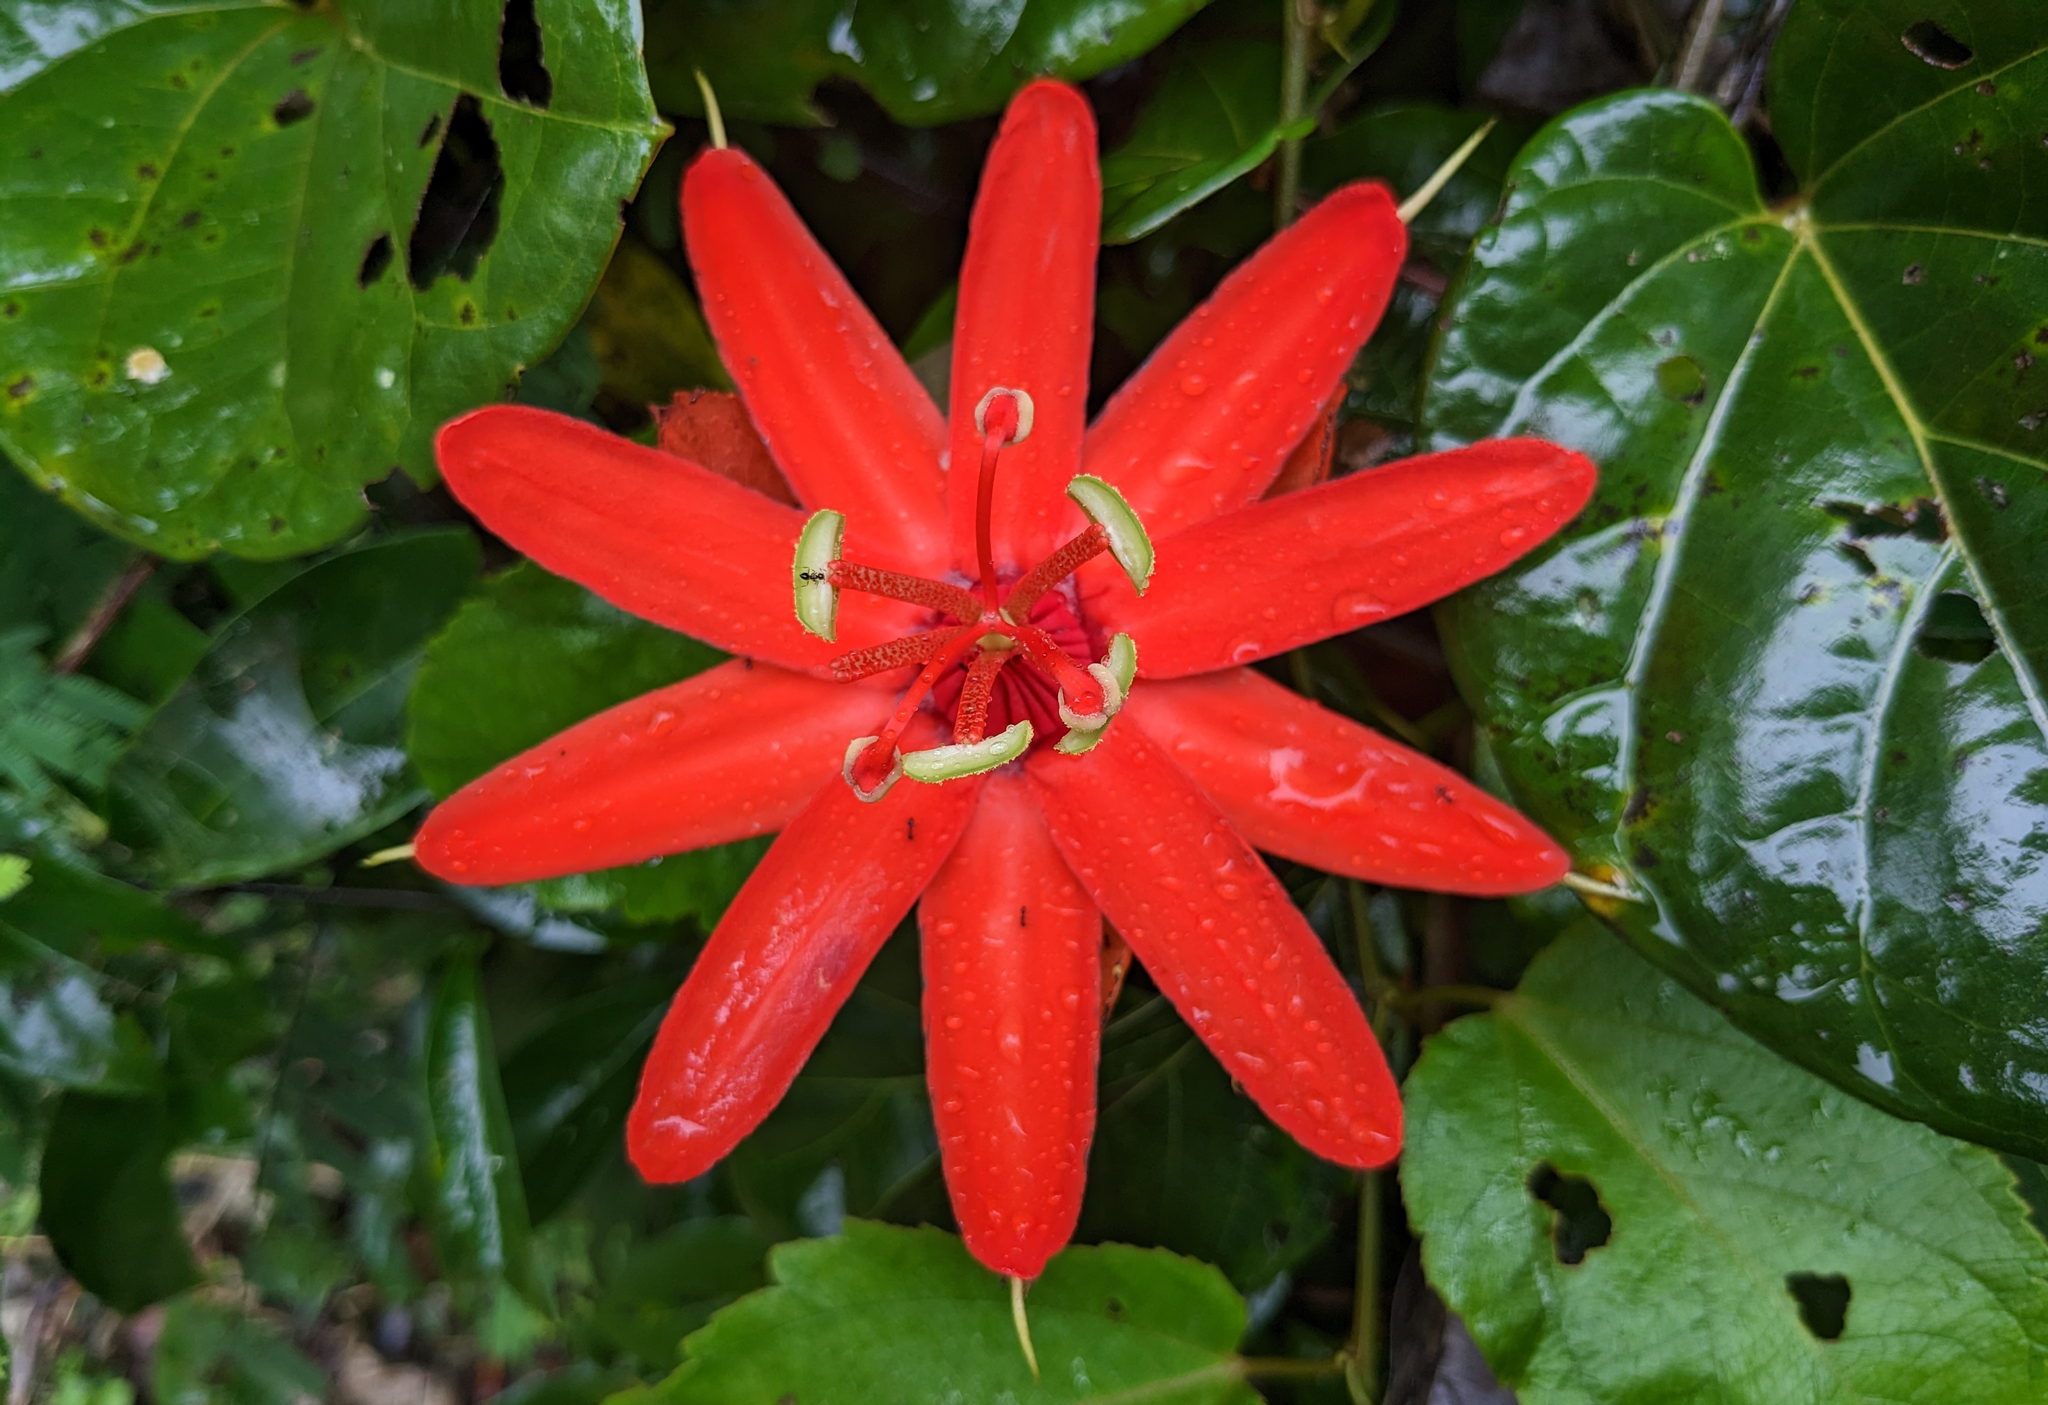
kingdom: Plantae
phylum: Tracheophyta
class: Magnoliopsida
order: Malpighiales
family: Passifloraceae
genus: Passiflora
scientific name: Passiflora tecta
